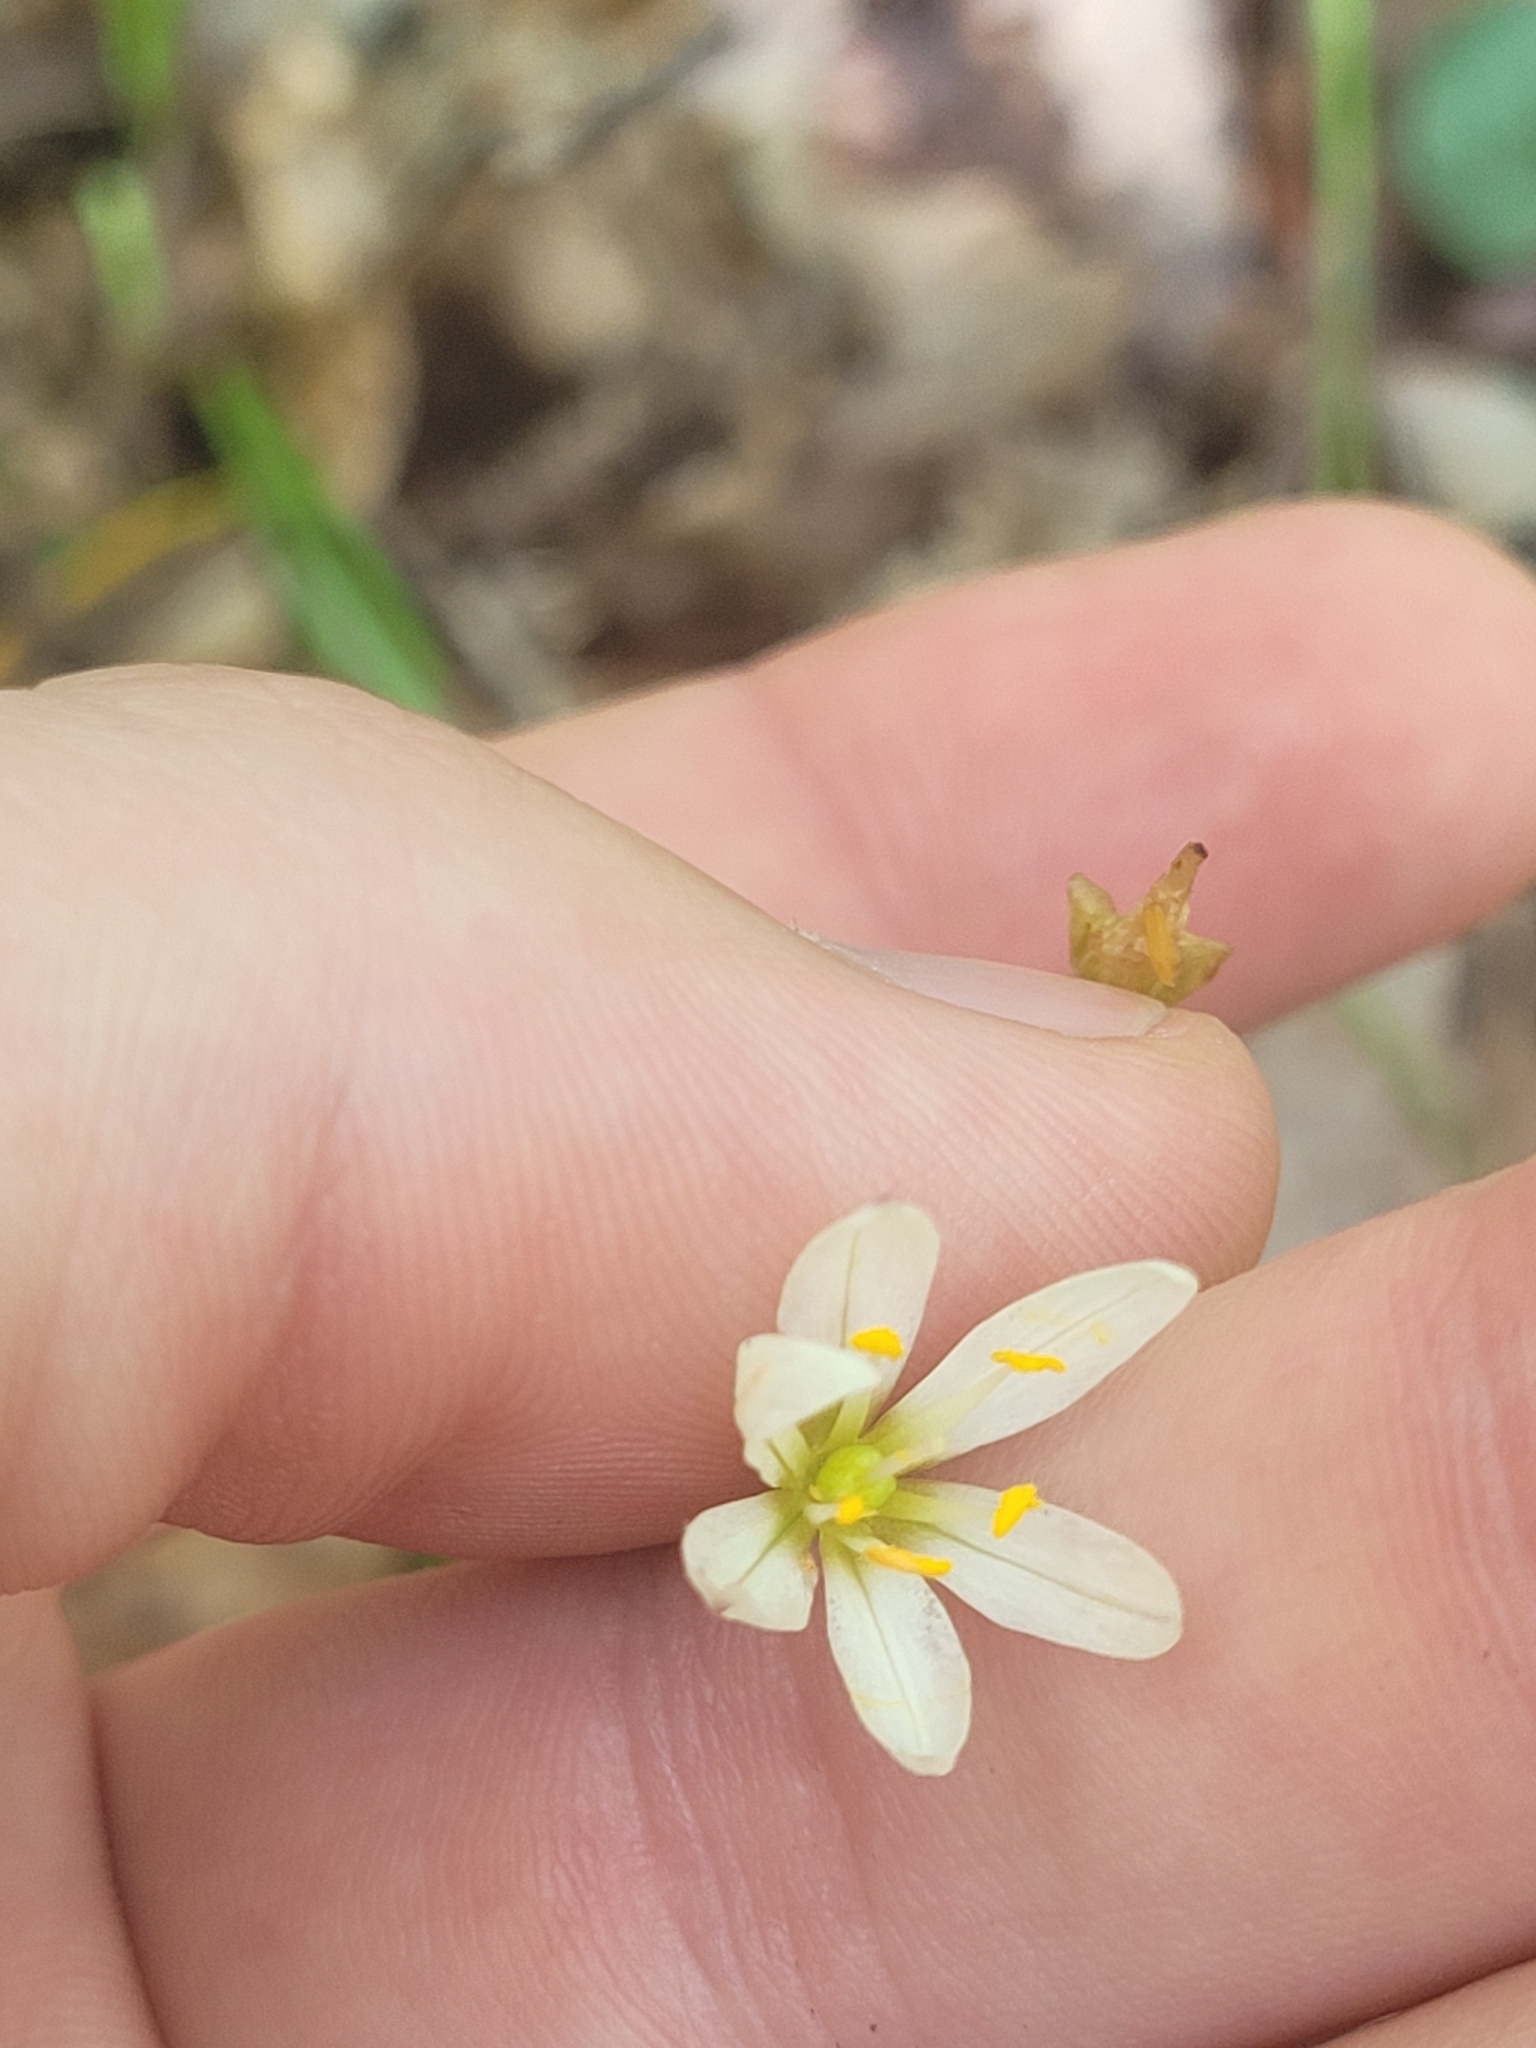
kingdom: Plantae
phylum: Tracheophyta
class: Liliopsida
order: Asparagales
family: Amaryllidaceae
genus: Nothoscordum
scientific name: Nothoscordum bivalve
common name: Crow-poison
